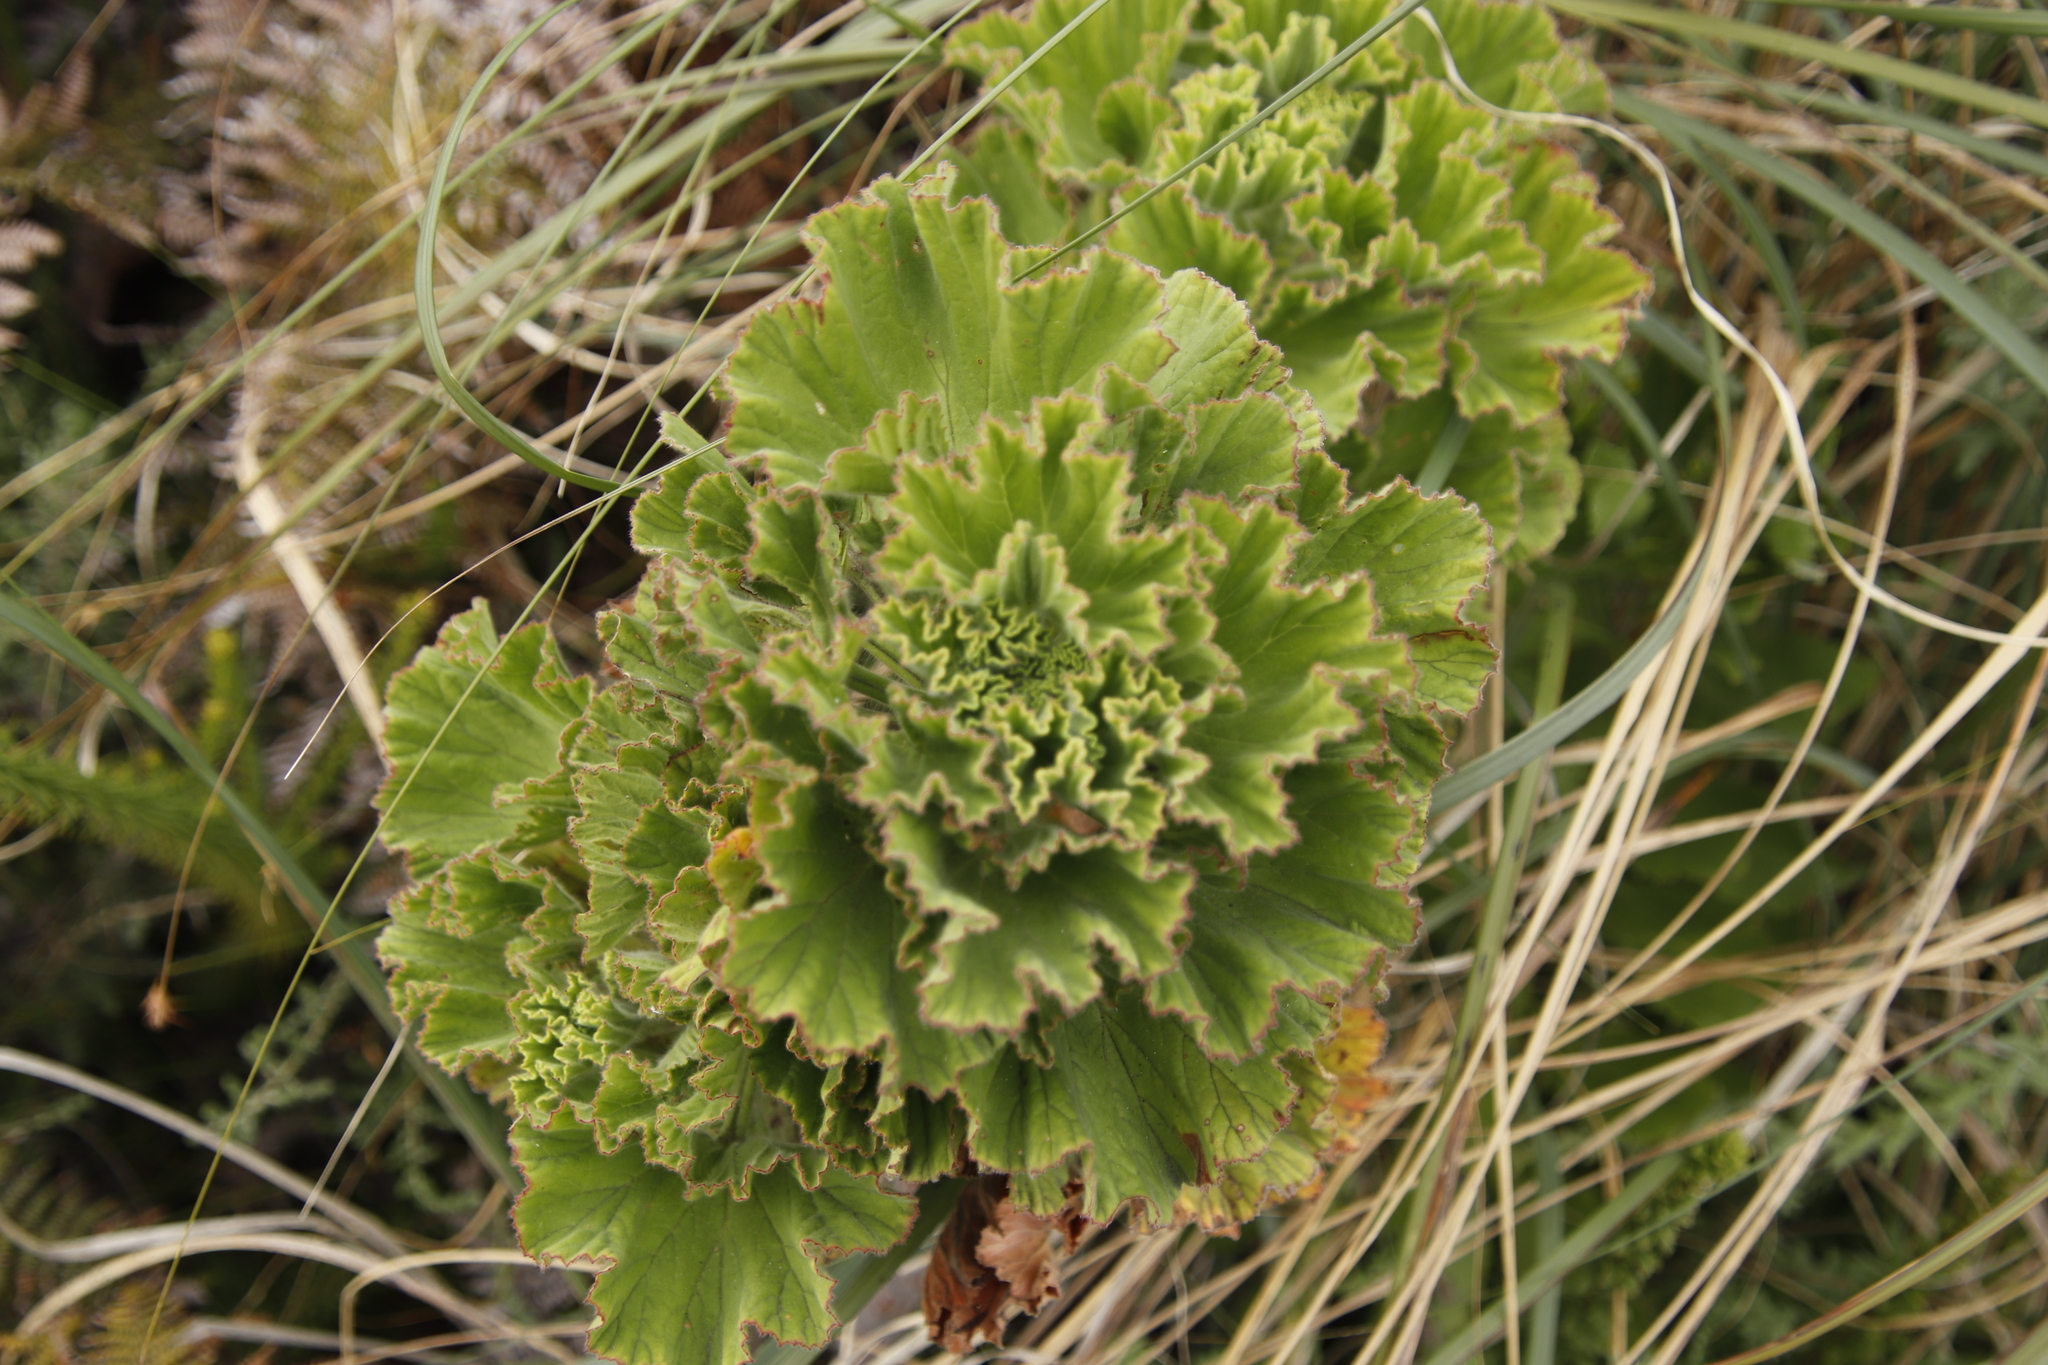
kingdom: Plantae
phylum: Tracheophyta
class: Magnoliopsida
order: Geraniales
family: Geraniaceae
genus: Pelargonium
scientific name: Pelargonium cucullatum
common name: Tree pelargonium
